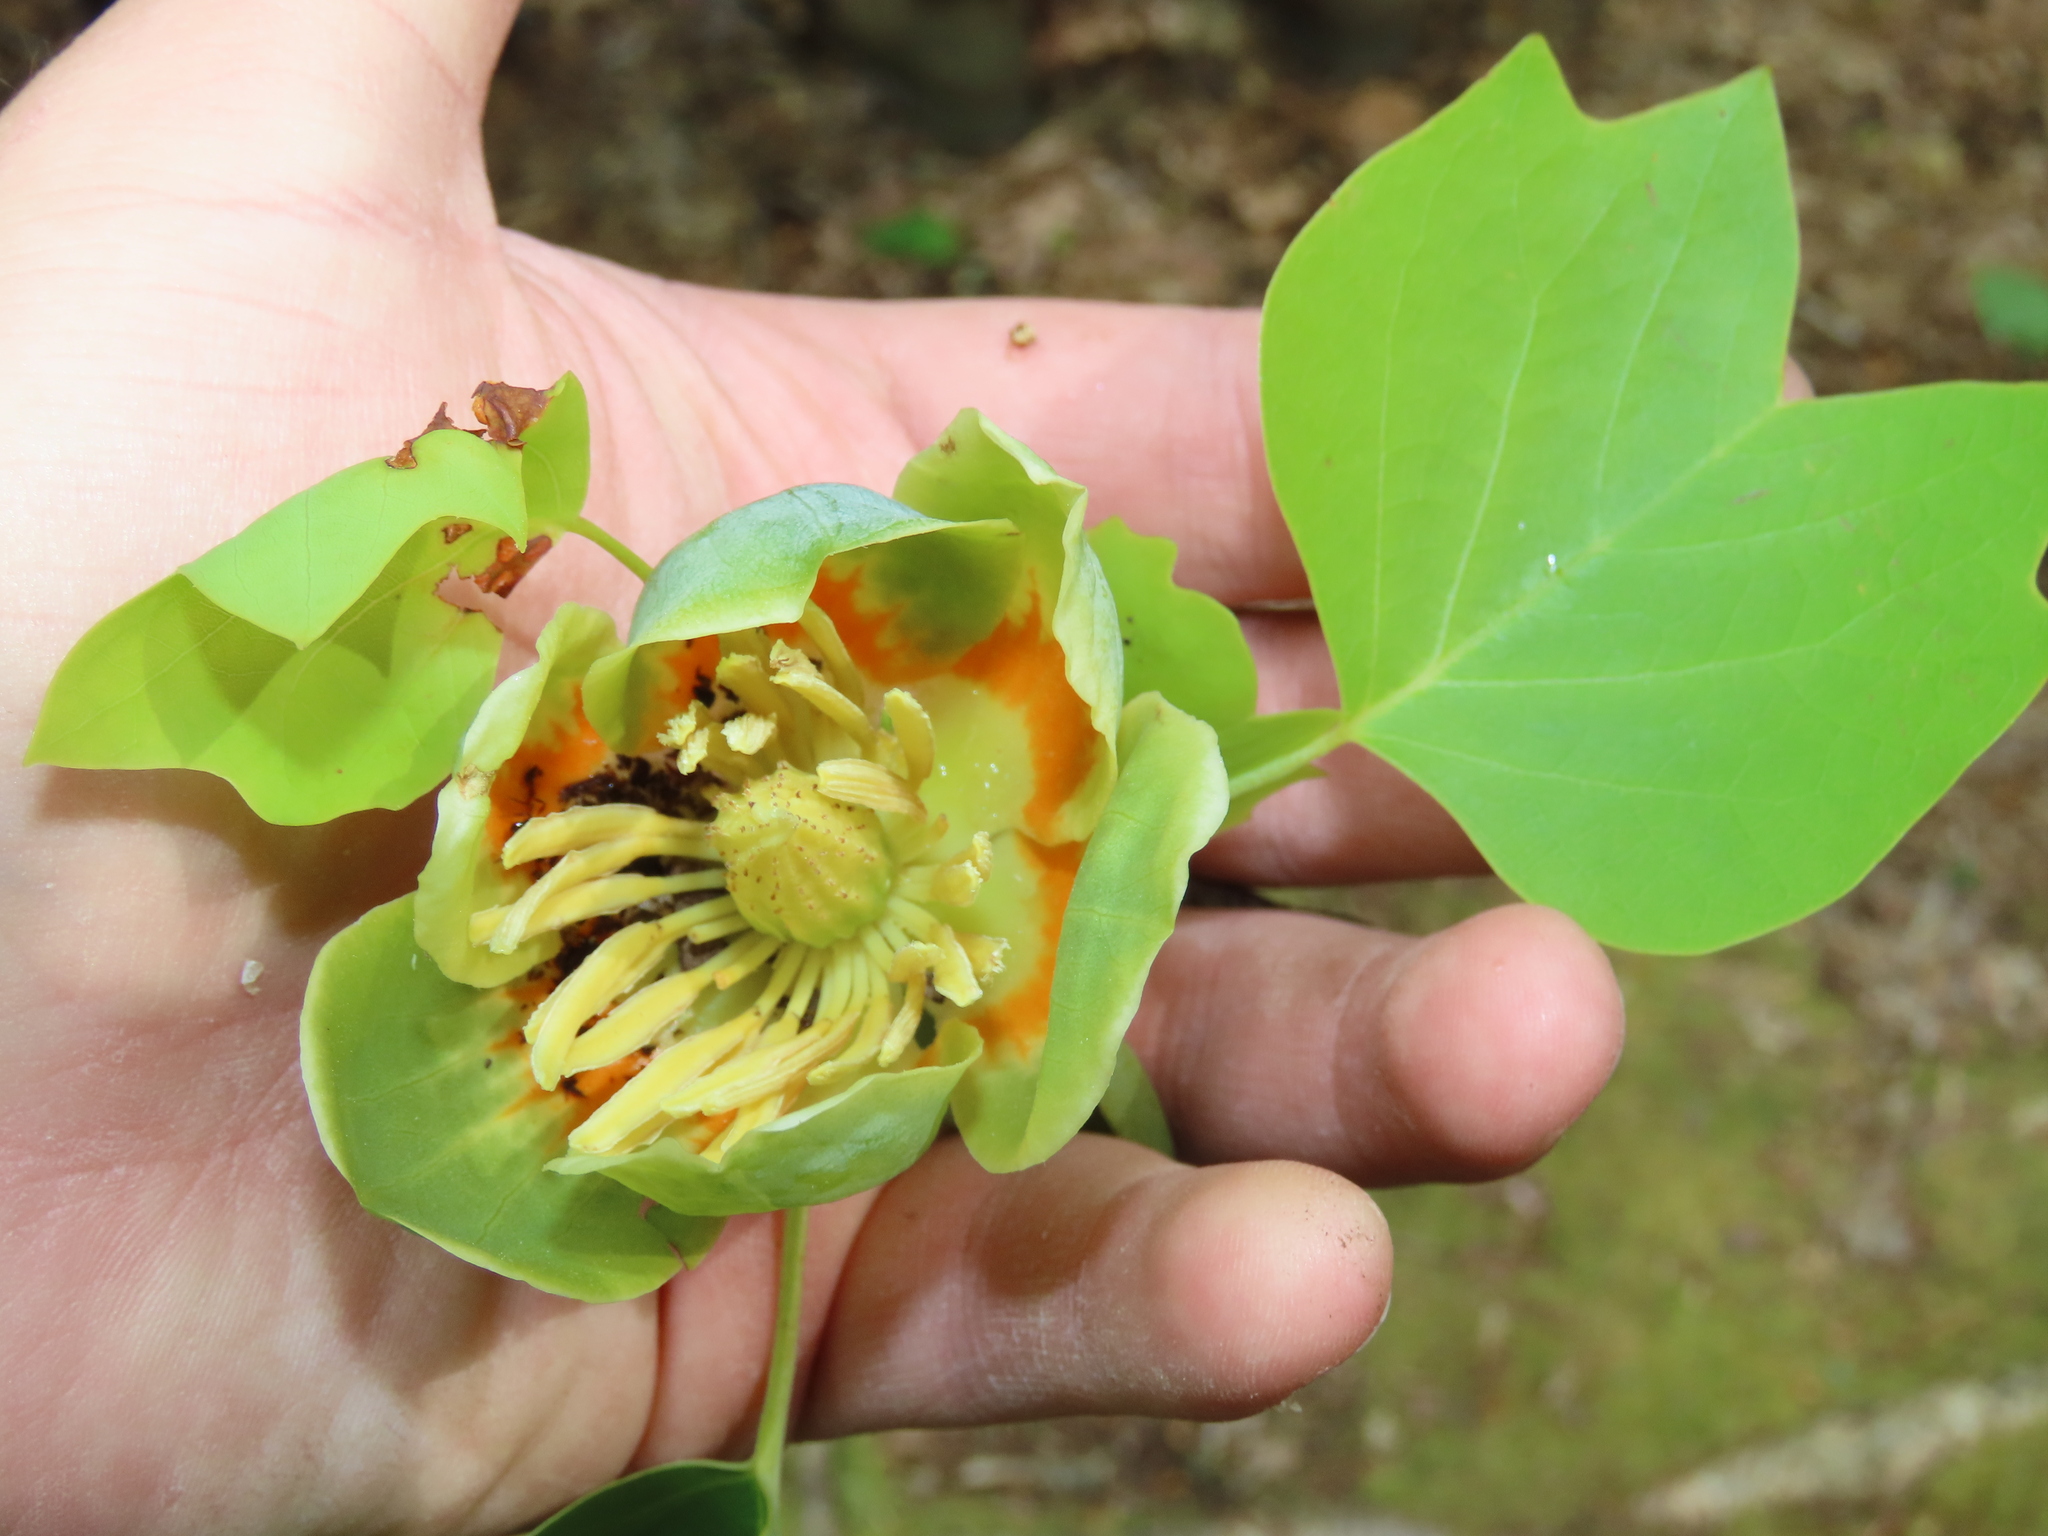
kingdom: Plantae
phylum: Tracheophyta
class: Magnoliopsida
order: Magnoliales
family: Magnoliaceae
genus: Liriodendron
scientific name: Liriodendron tulipifera
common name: Tulip tree
